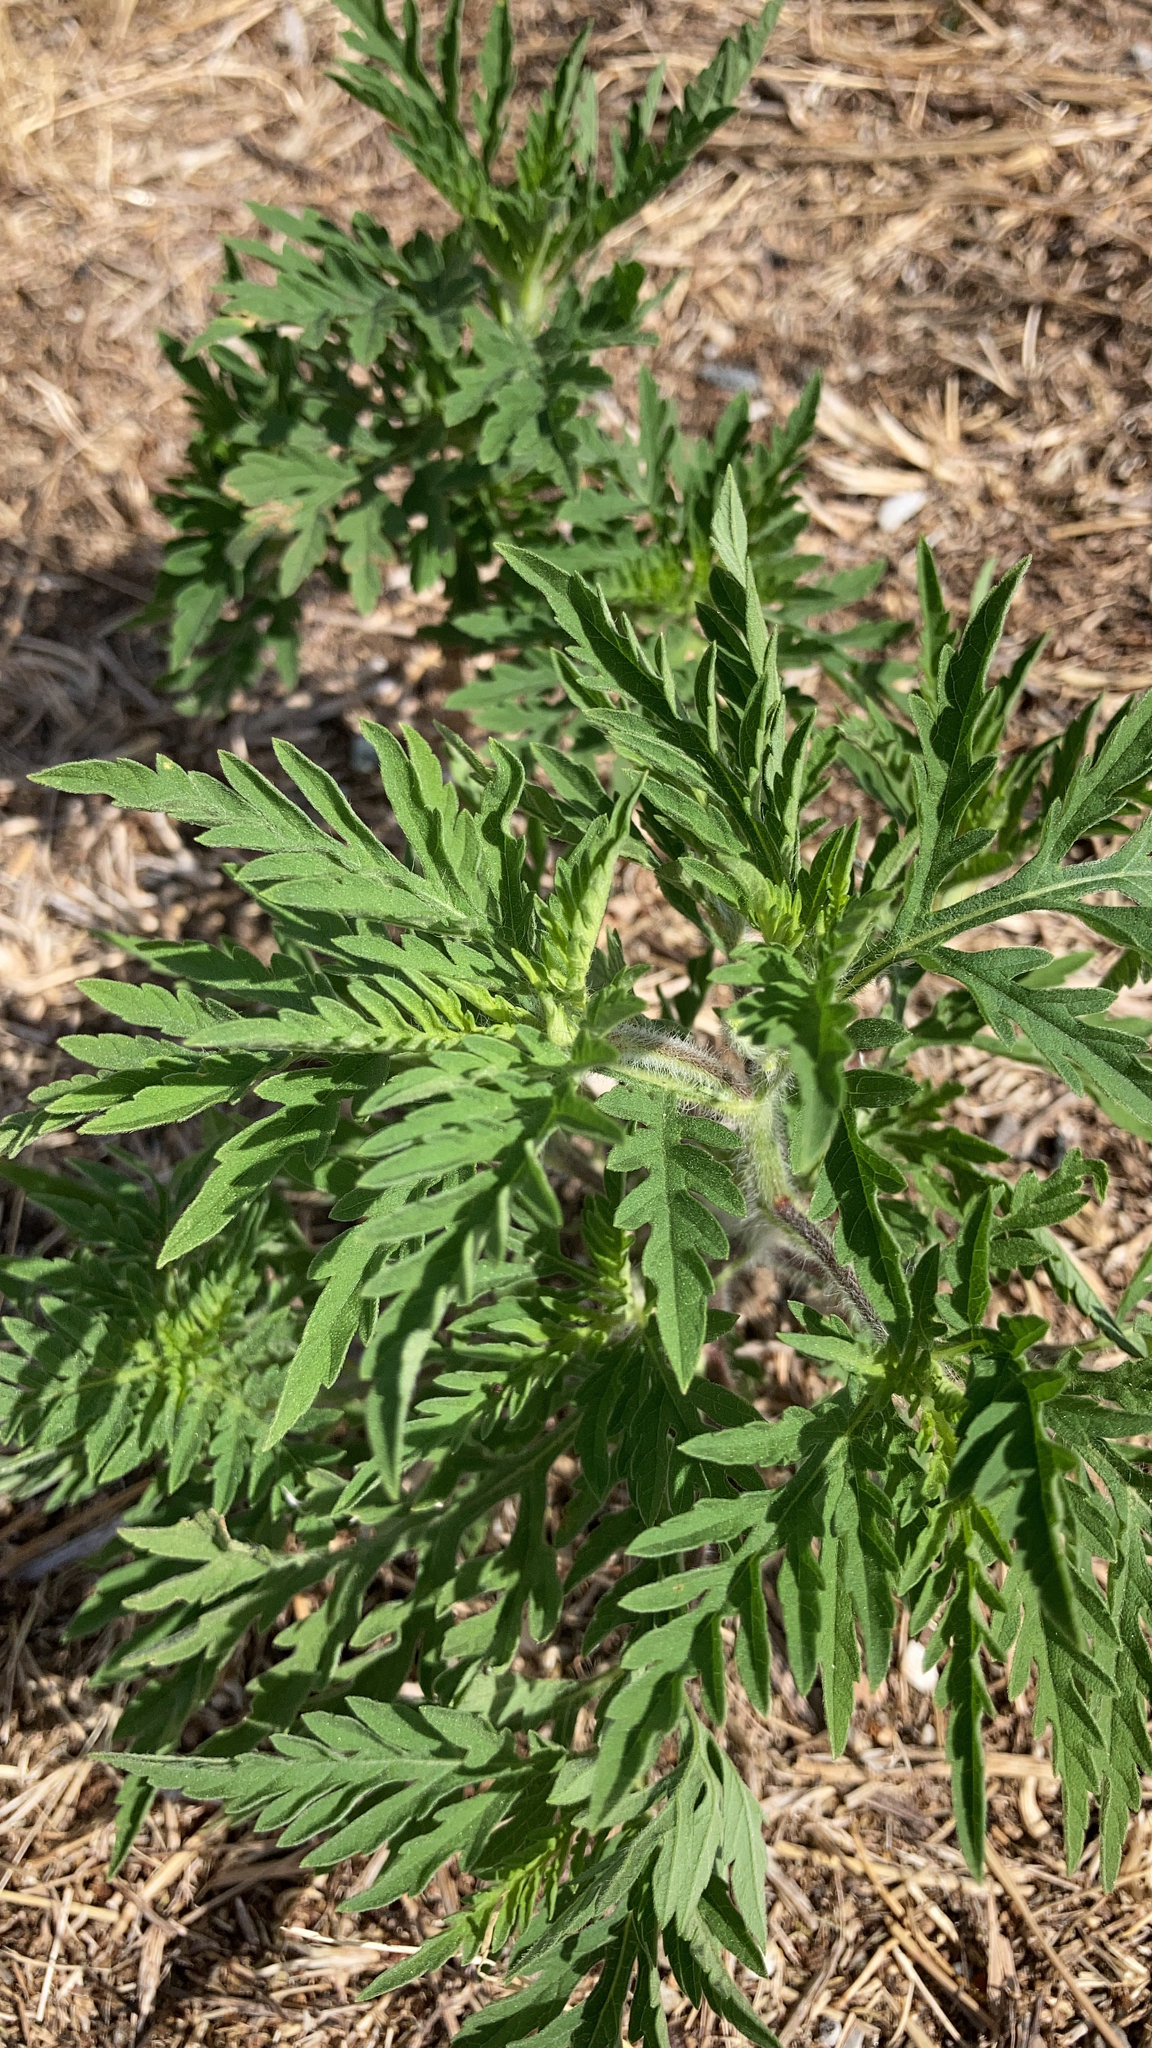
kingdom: Plantae
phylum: Tracheophyta
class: Magnoliopsida
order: Asterales
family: Asteraceae
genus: Ambrosia
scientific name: Ambrosia artemisiifolia
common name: Annual ragweed
